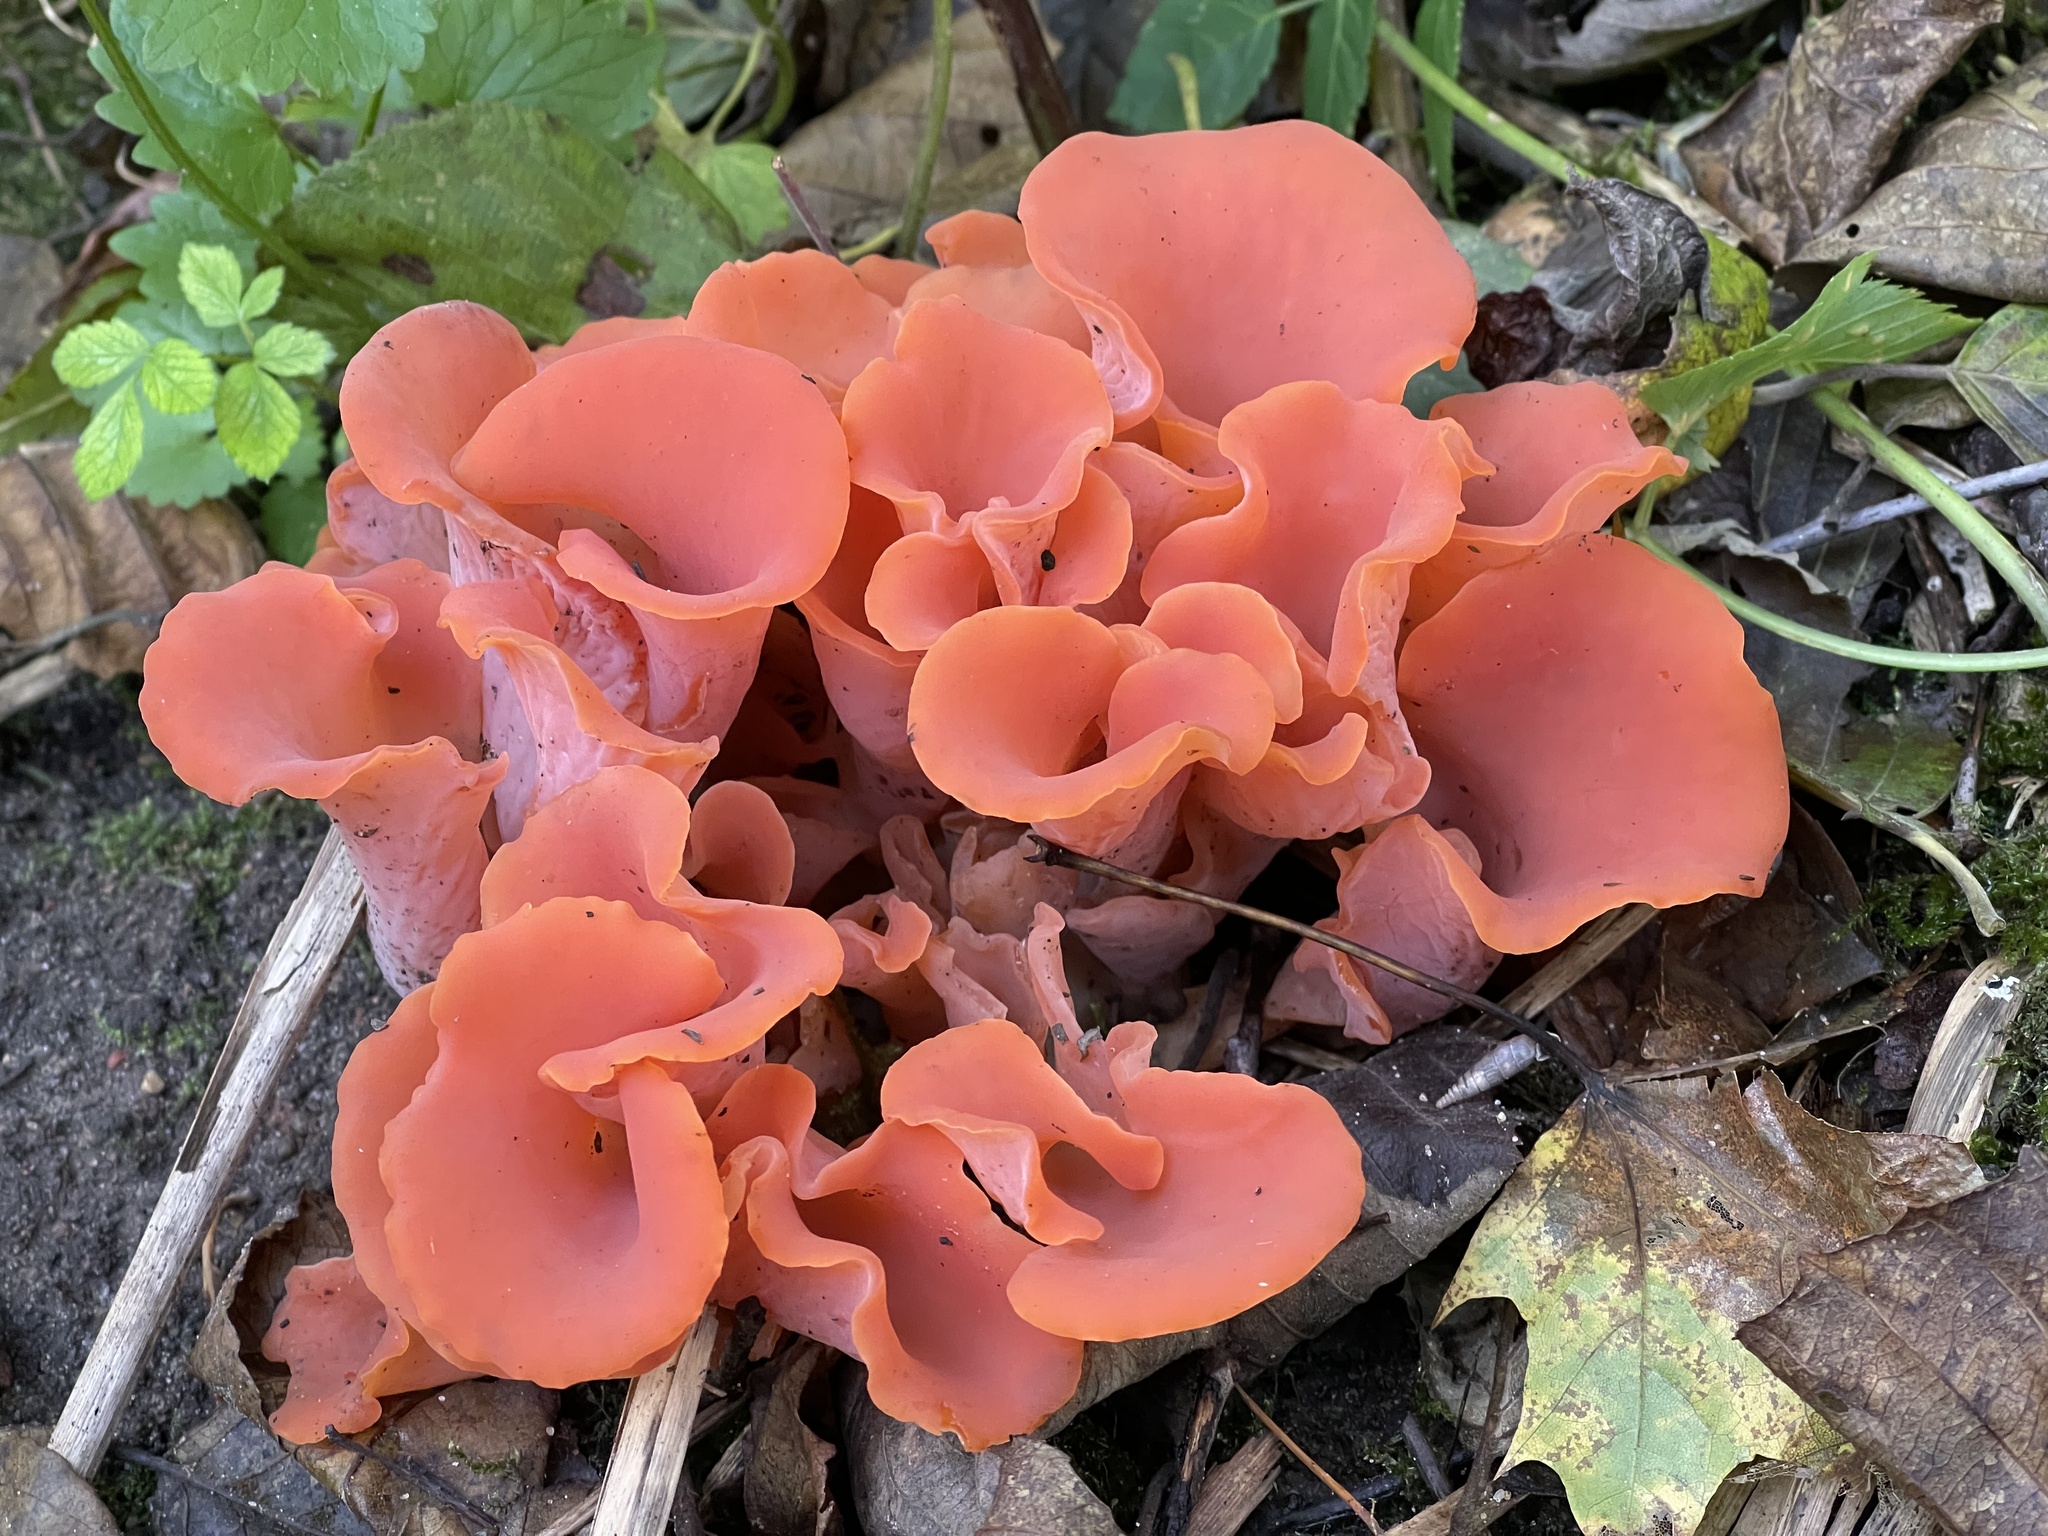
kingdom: Fungi
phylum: Basidiomycota
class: Agaricomycetes
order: Auriculariales
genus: Guepinia
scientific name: Guepinia helvelloides
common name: Salmon salad
